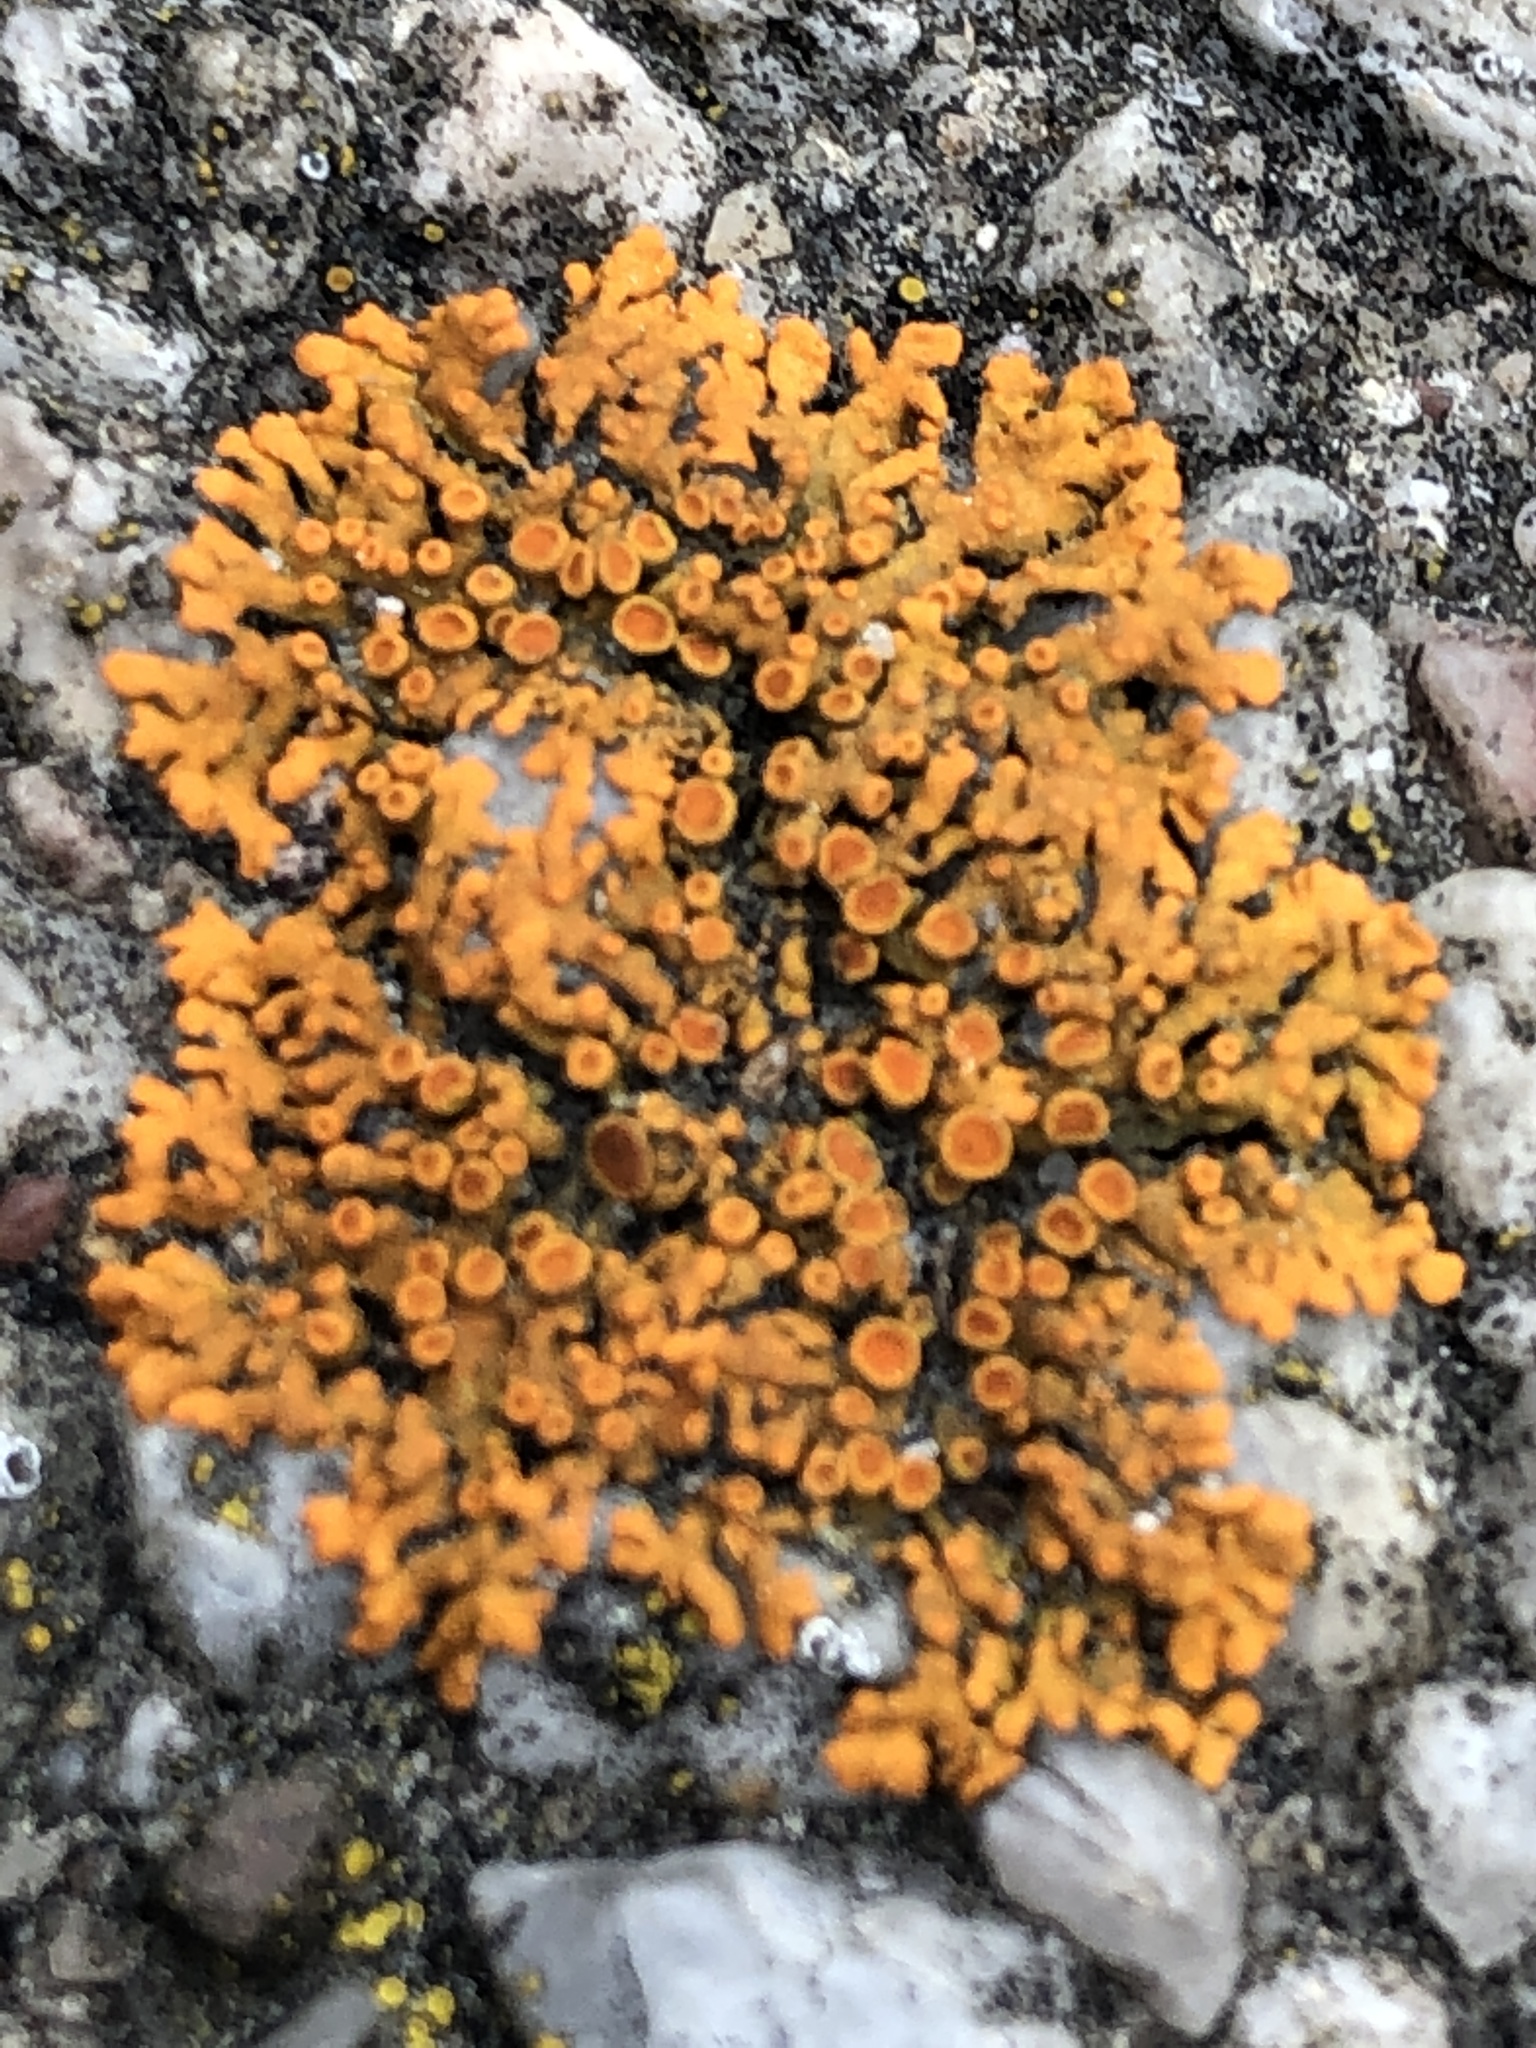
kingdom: Fungi
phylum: Ascomycota
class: Lecanoromycetes
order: Teloschistales
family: Teloschistaceae
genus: Xanthoria
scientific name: Xanthoria elegans
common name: Elegant sunburst lichen
